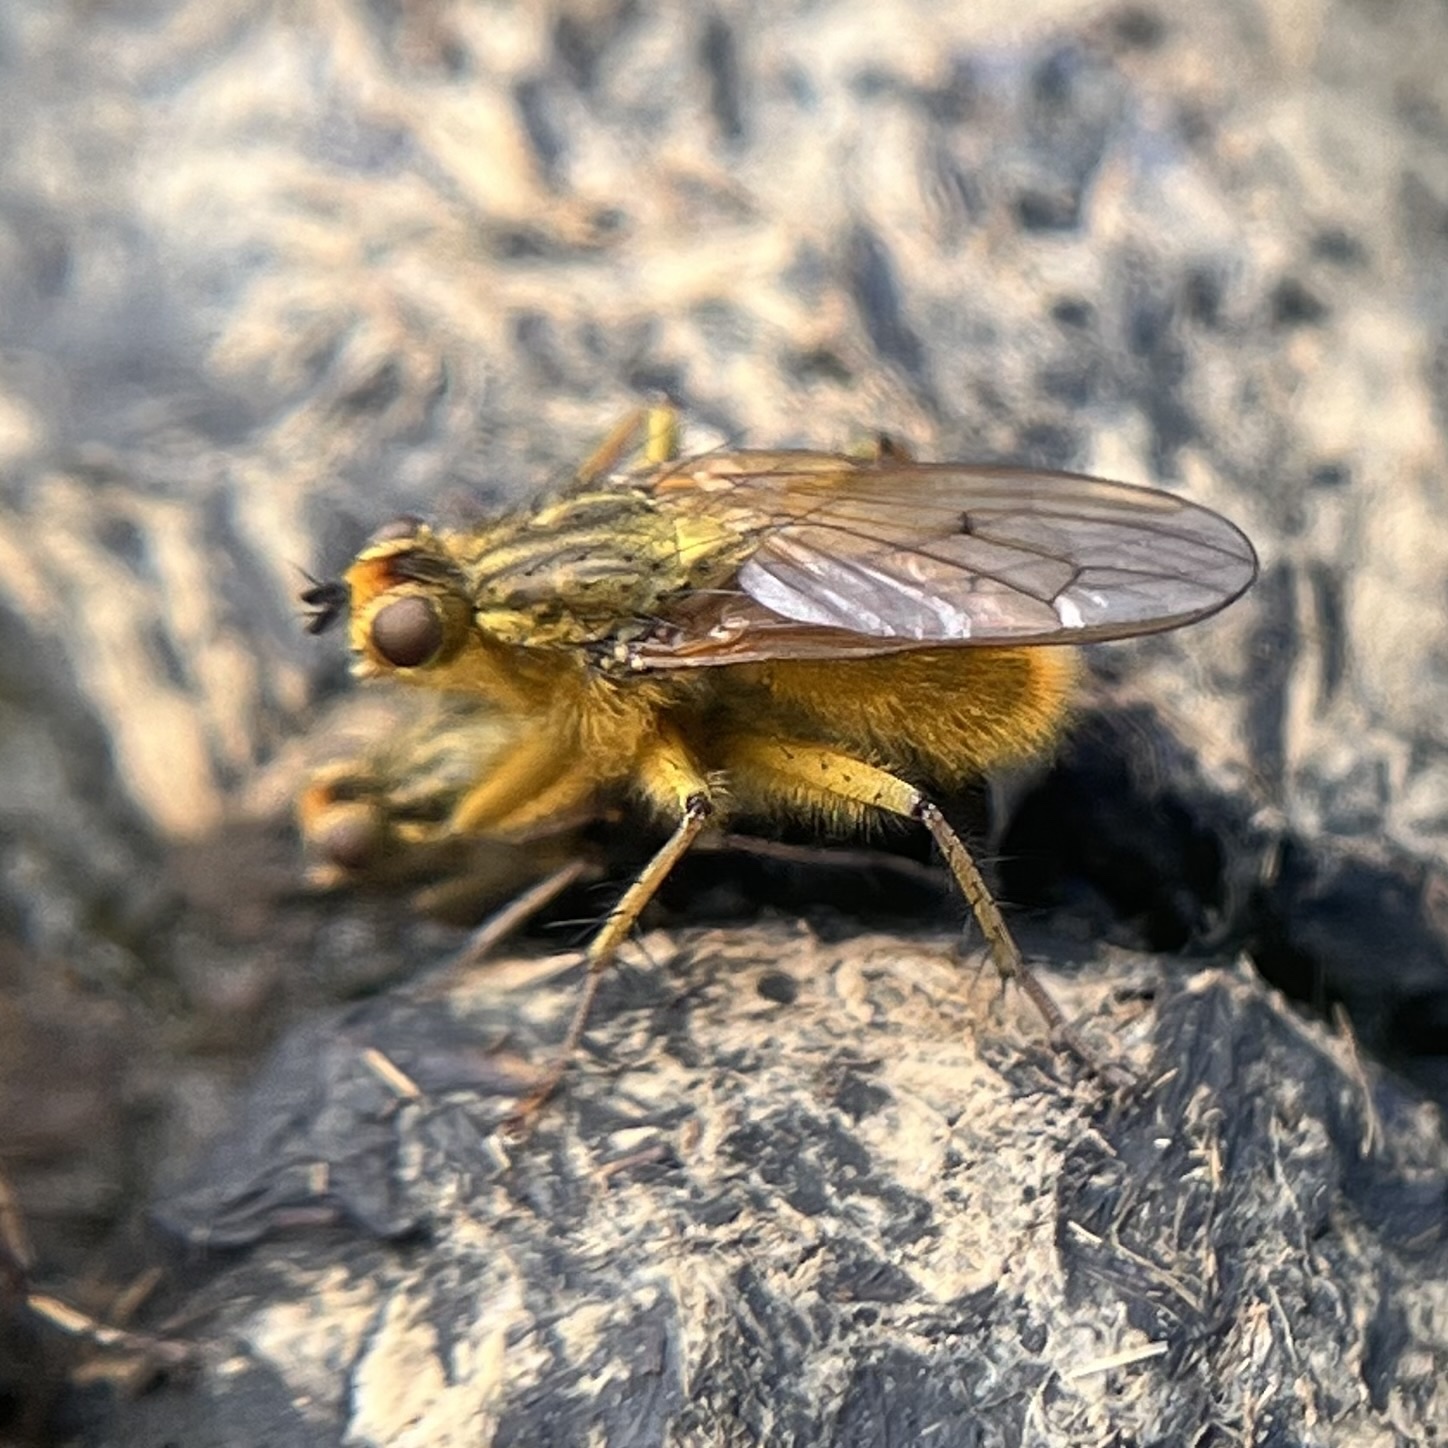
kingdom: Animalia
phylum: Arthropoda
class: Insecta
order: Diptera
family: Scathophagidae
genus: Scathophaga
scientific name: Scathophaga stercoraria
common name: Yellow dung fly
